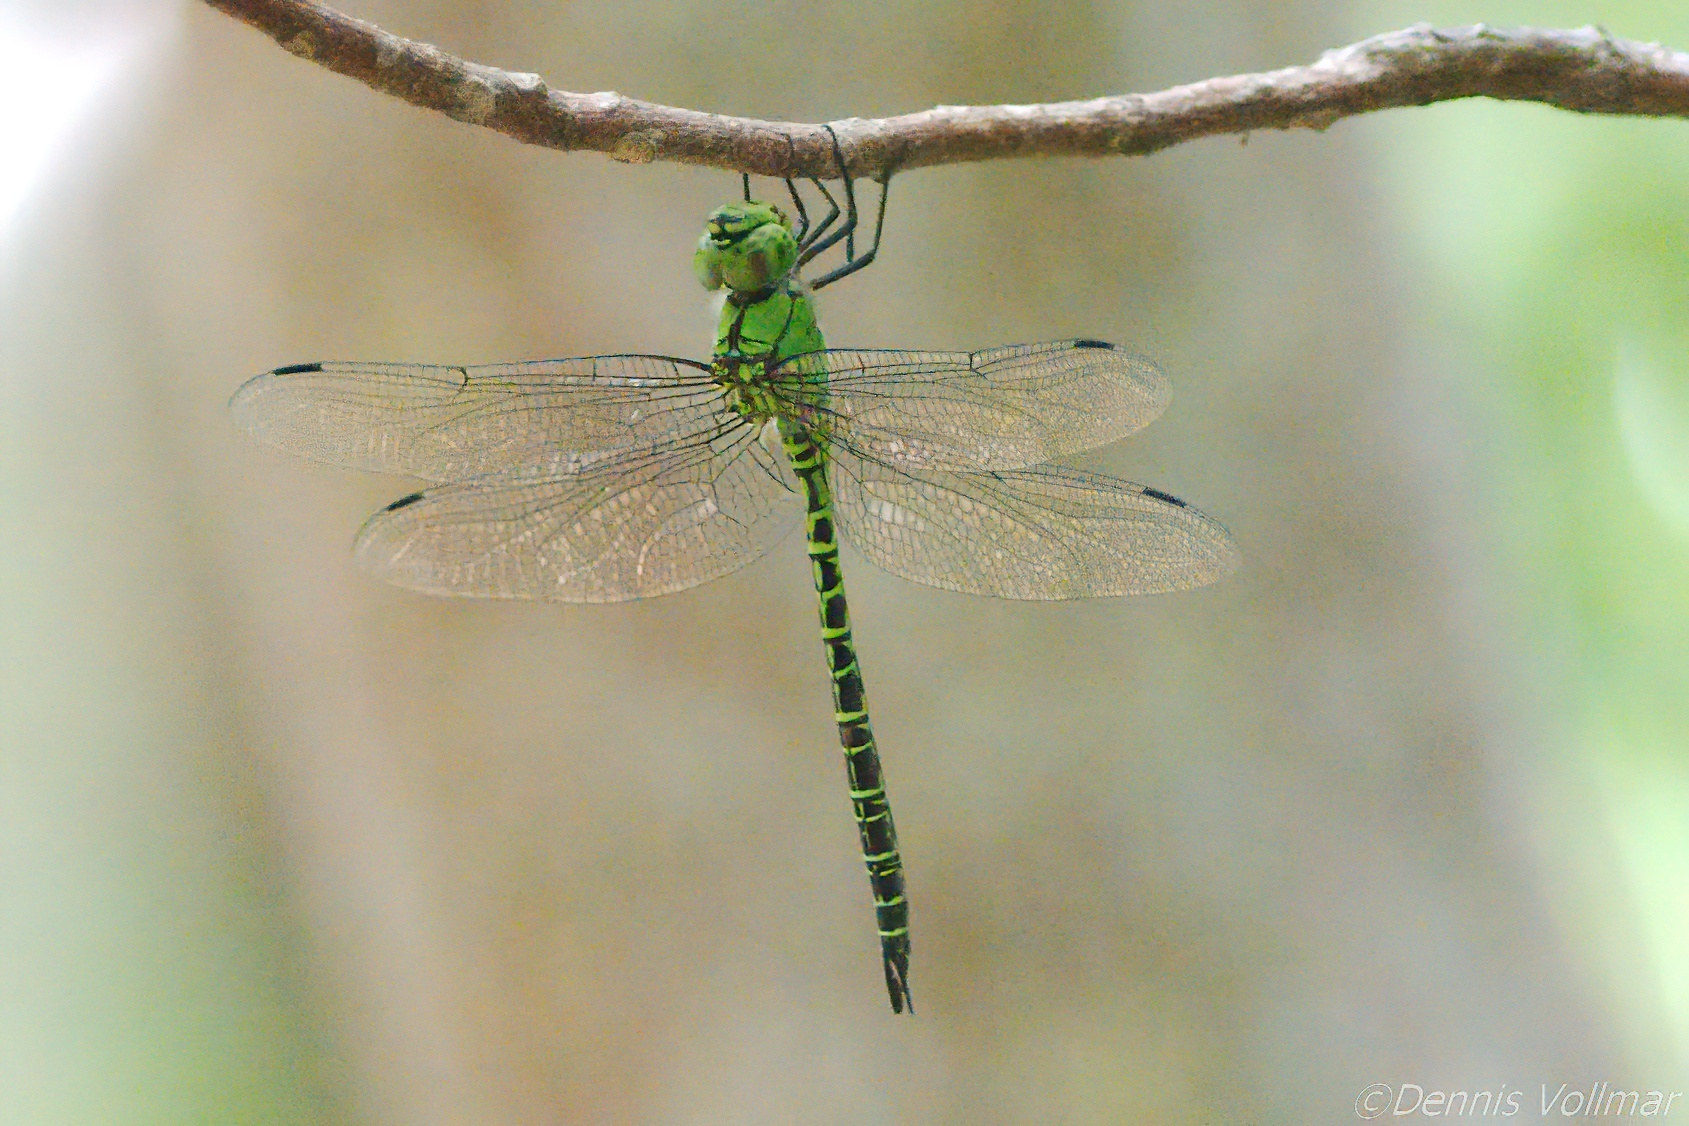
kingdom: Animalia
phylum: Arthropoda
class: Insecta
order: Odonata
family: Aeshnidae
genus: Coryphaeschna
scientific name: Coryphaeschna viriditas
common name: Mangrove darner
